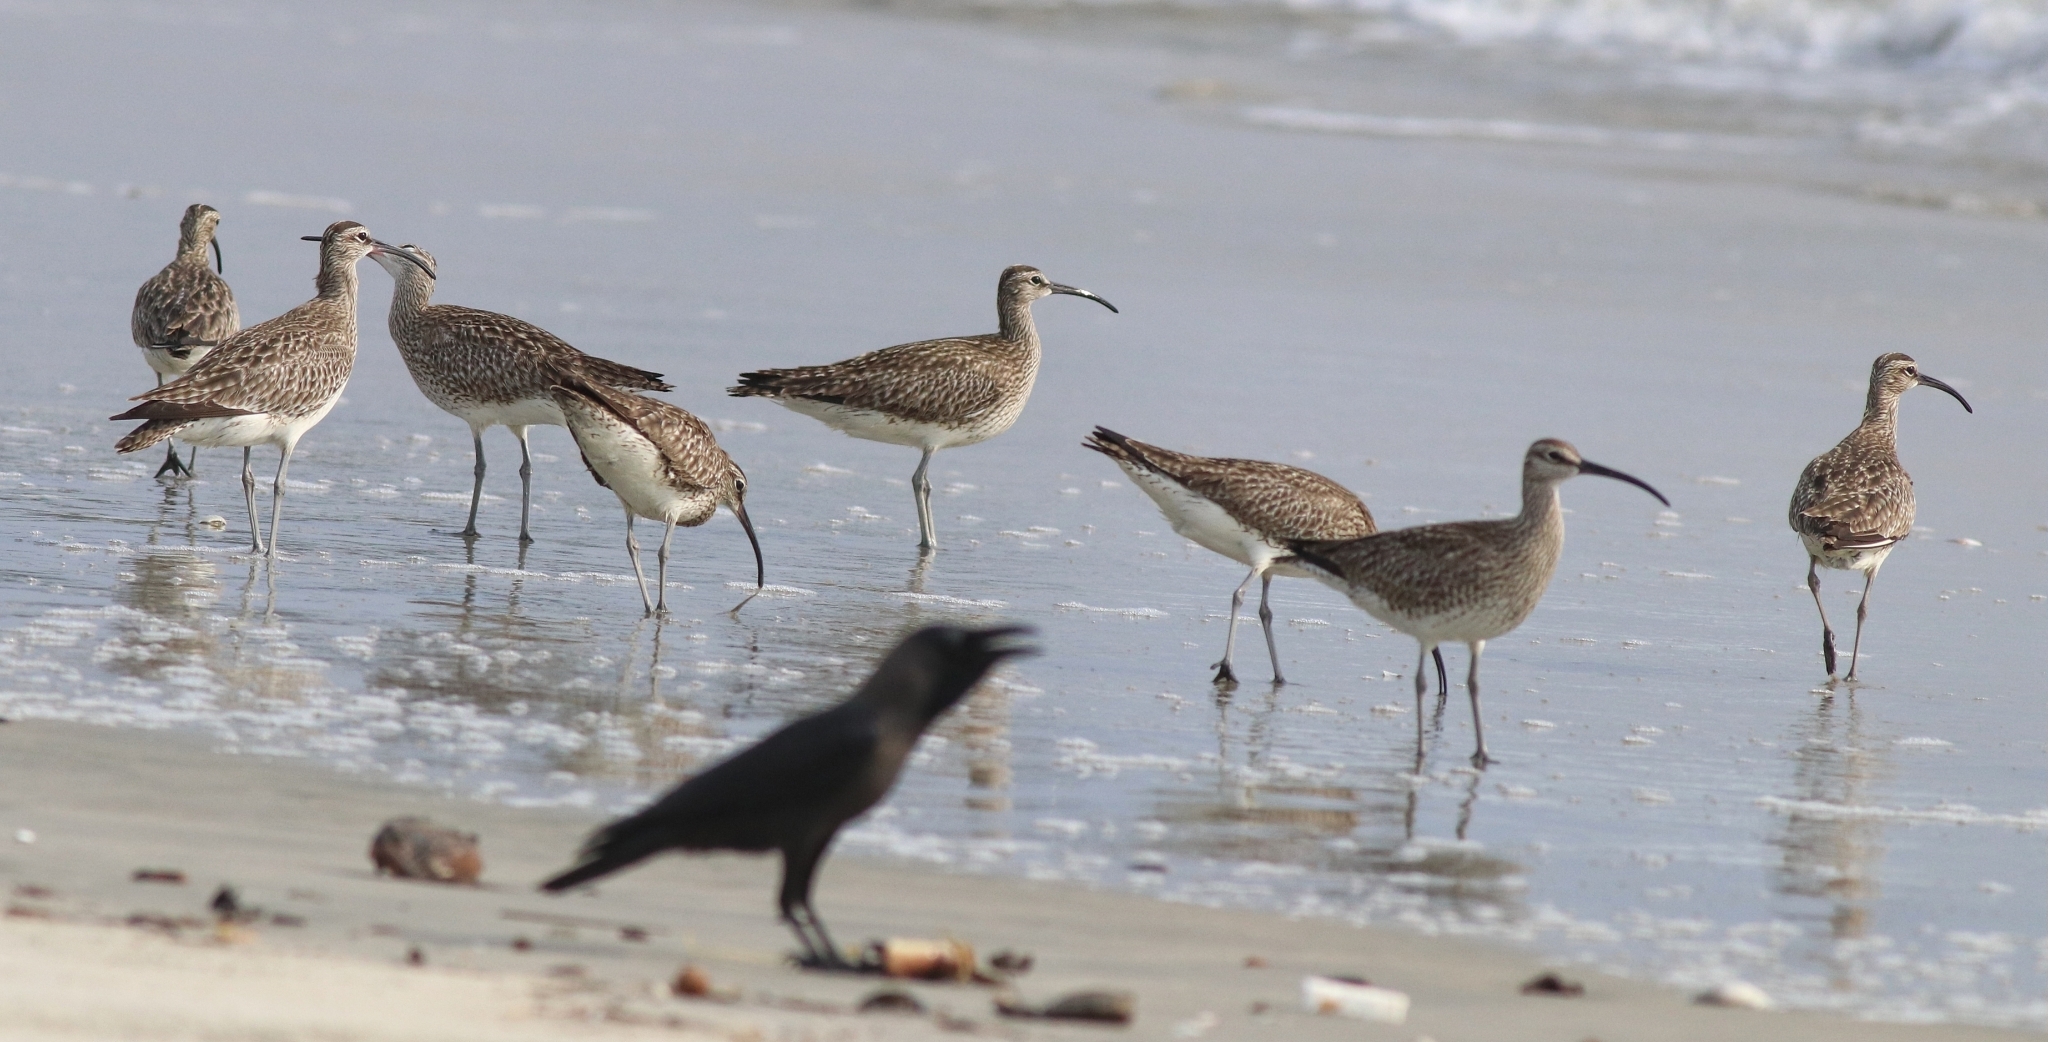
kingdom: Animalia
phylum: Chordata
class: Aves
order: Charadriiformes
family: Scolopacidae
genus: Numenius
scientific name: Numenius phaeopus
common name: Whimbrel
